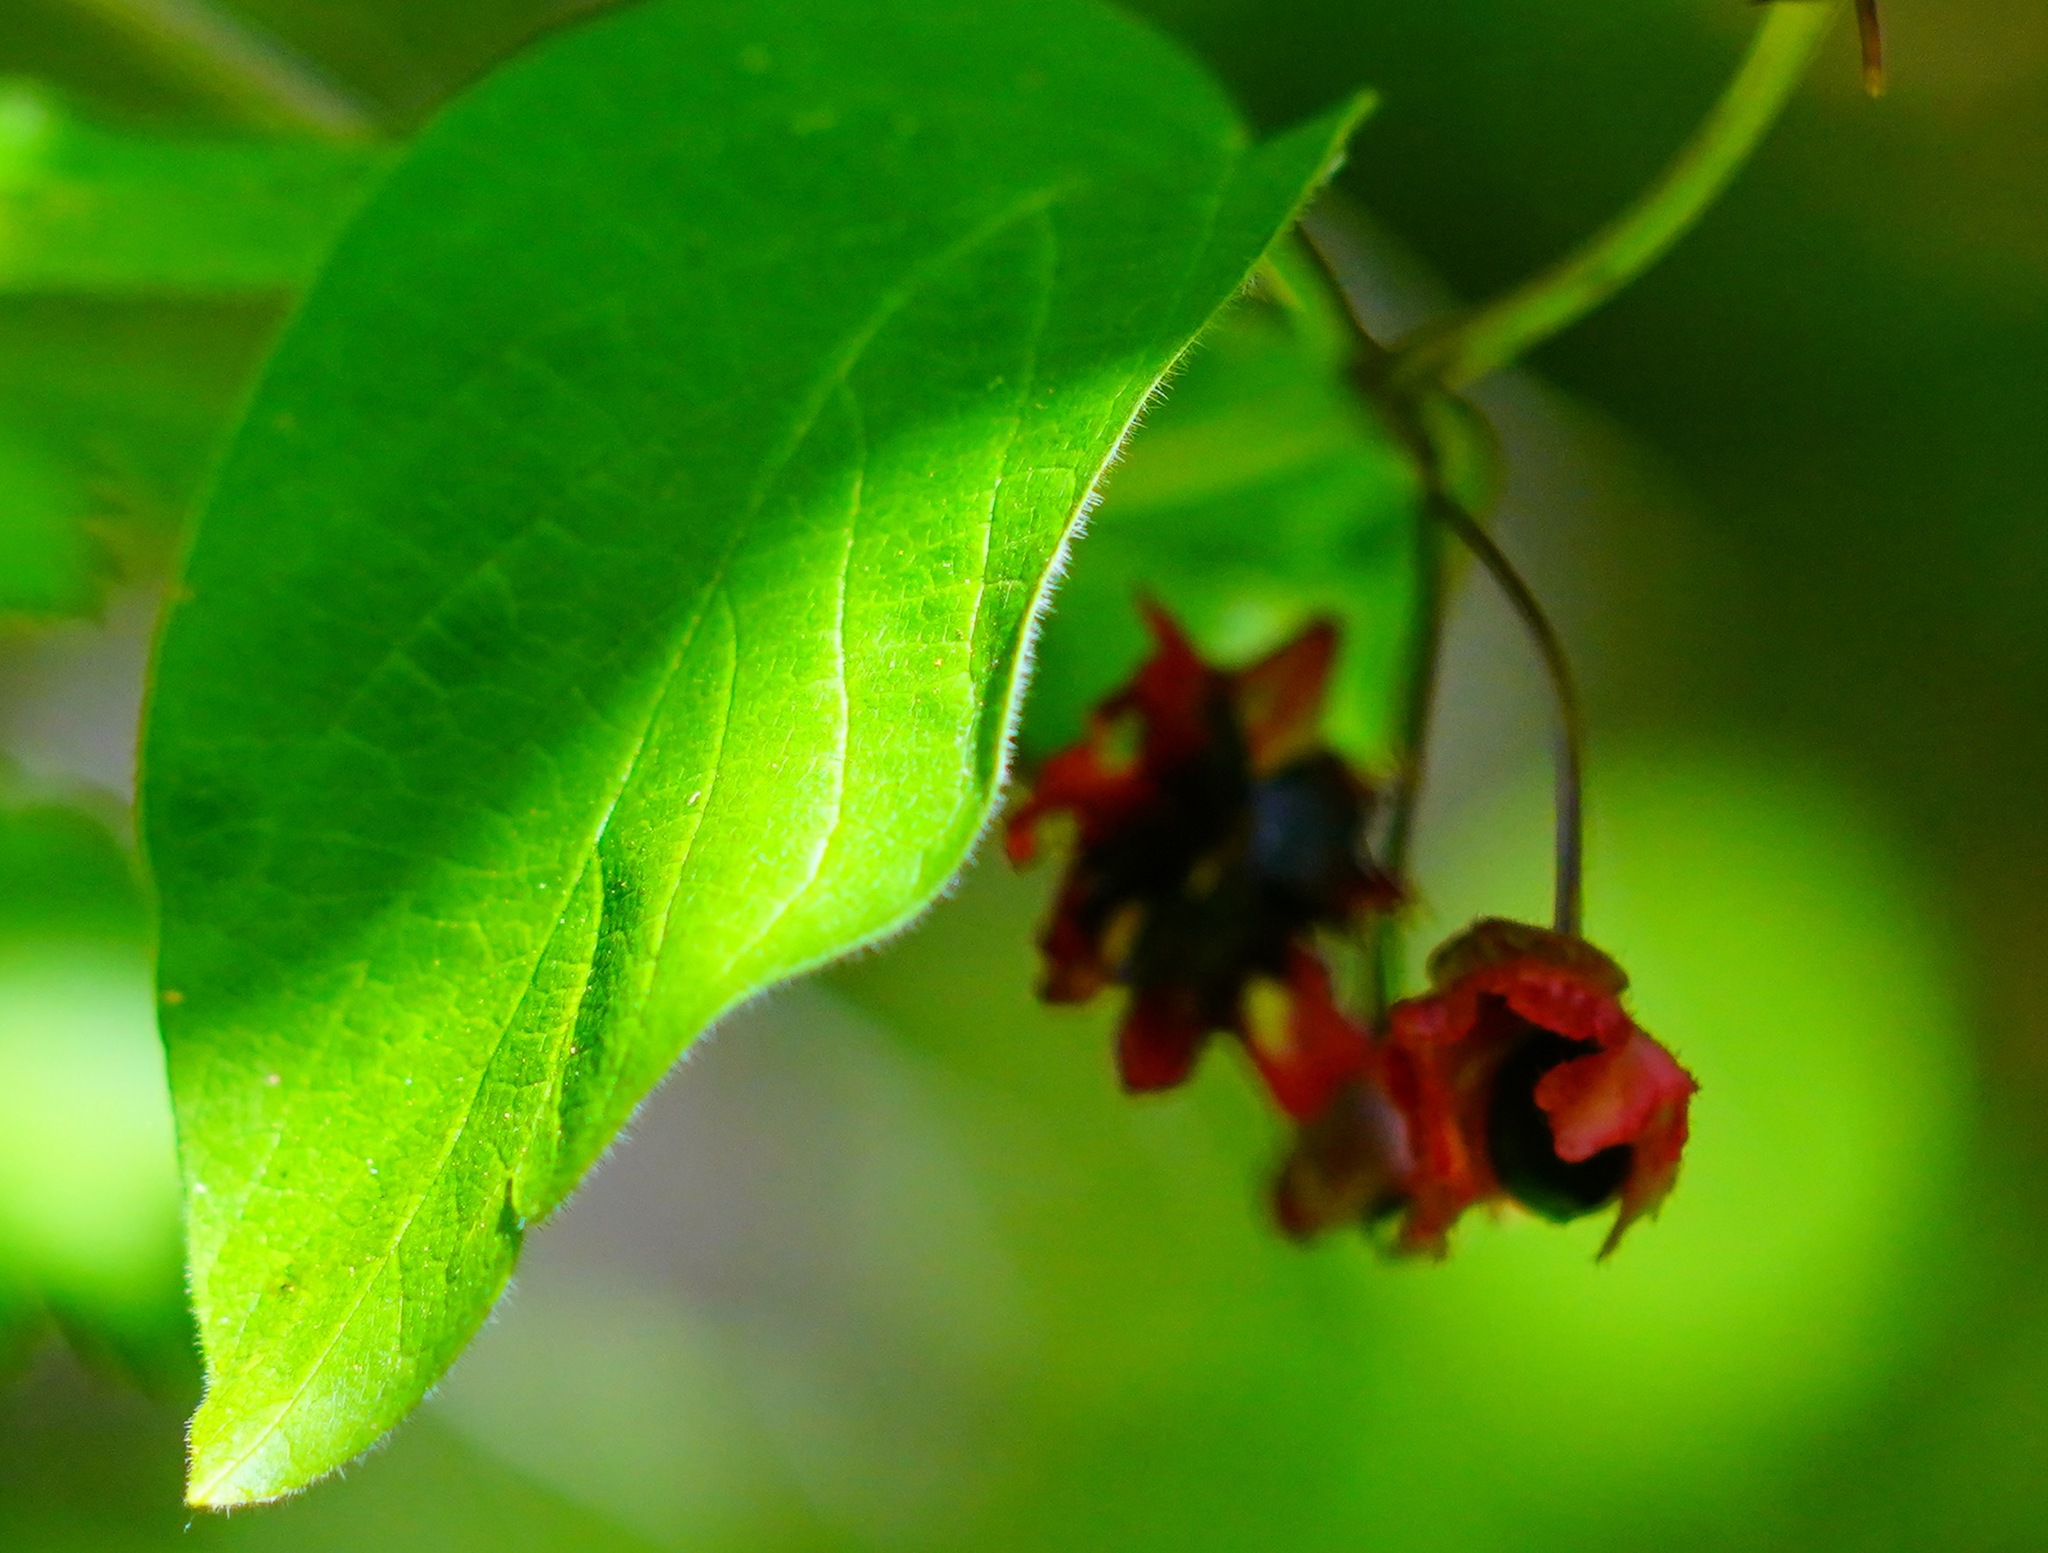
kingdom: Plantae
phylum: Tracheophyta
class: Magnoliopsida
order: Dipsacales
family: Caprifoliaceae
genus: Lonicera
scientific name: Lonicera involucrata
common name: Californian honeysuckle
